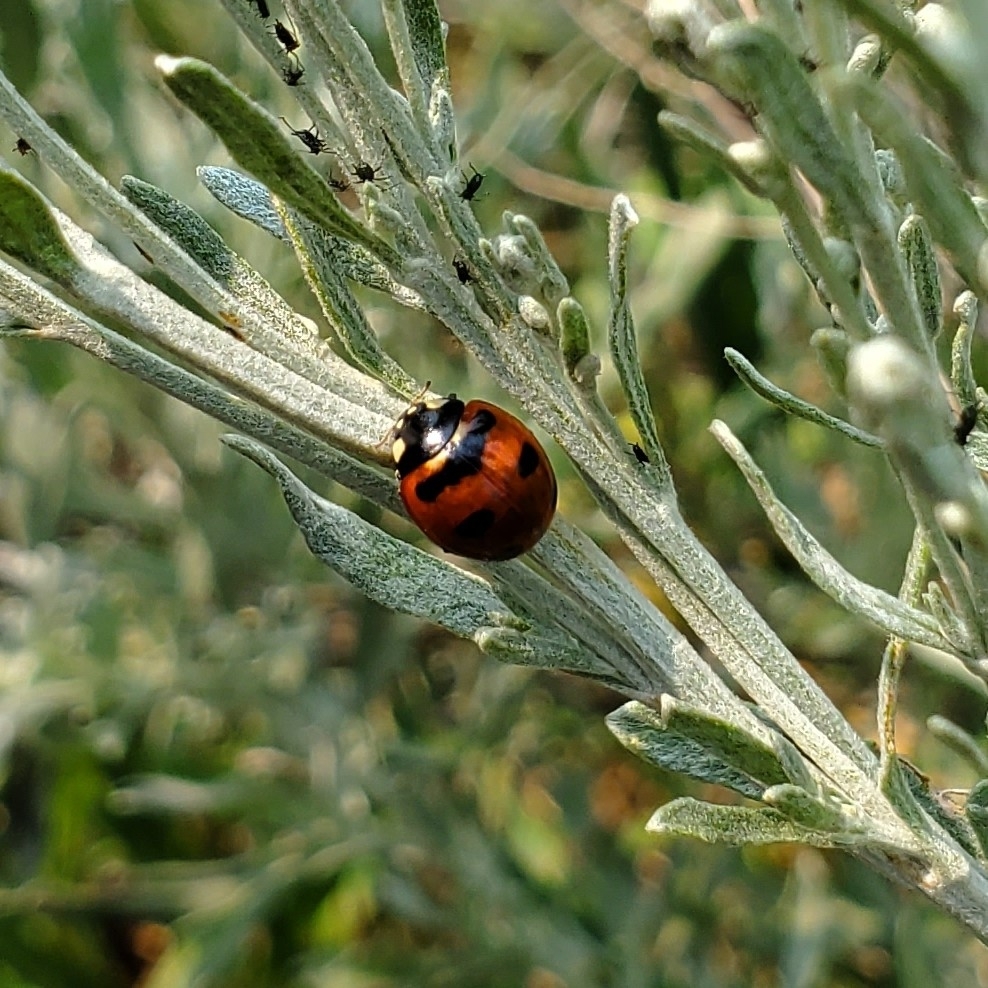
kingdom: Animalia
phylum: Arthropoda
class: Insecta
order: Coleoptera
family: Coccinellidae
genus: Coccinella
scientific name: Coccinella transversoguttata
